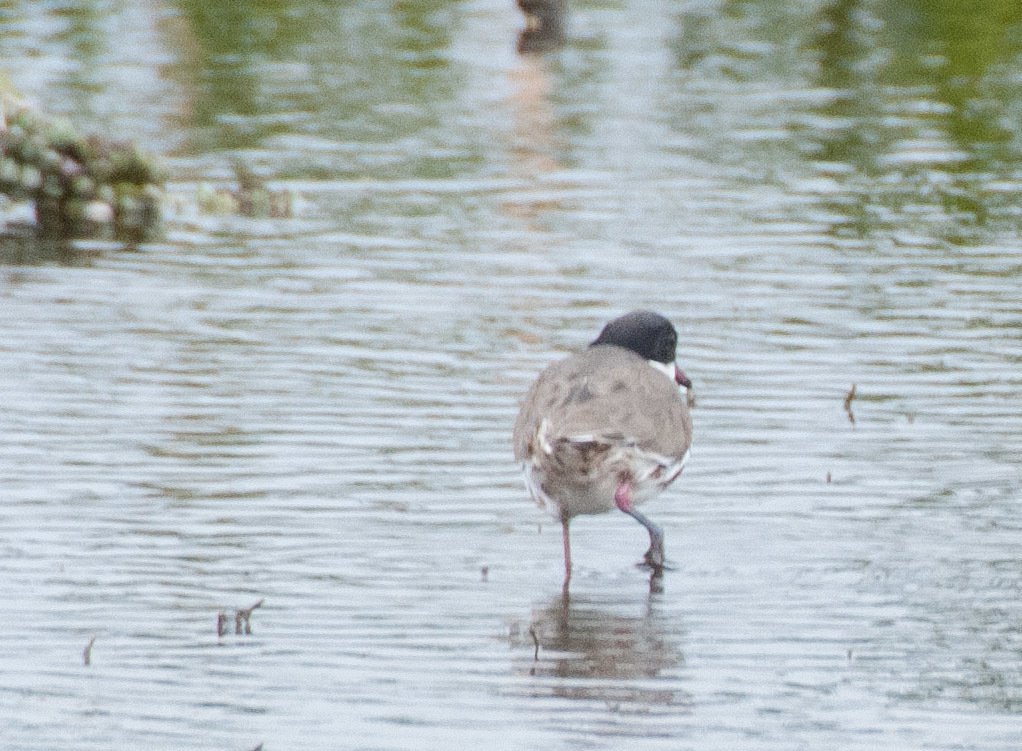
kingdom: Animalia
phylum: Chordata
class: Aves
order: Charadriiformes
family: Charadriidae
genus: Erythrogonys
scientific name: Erythrogonys cinctus
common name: Red-kneed dotterel
